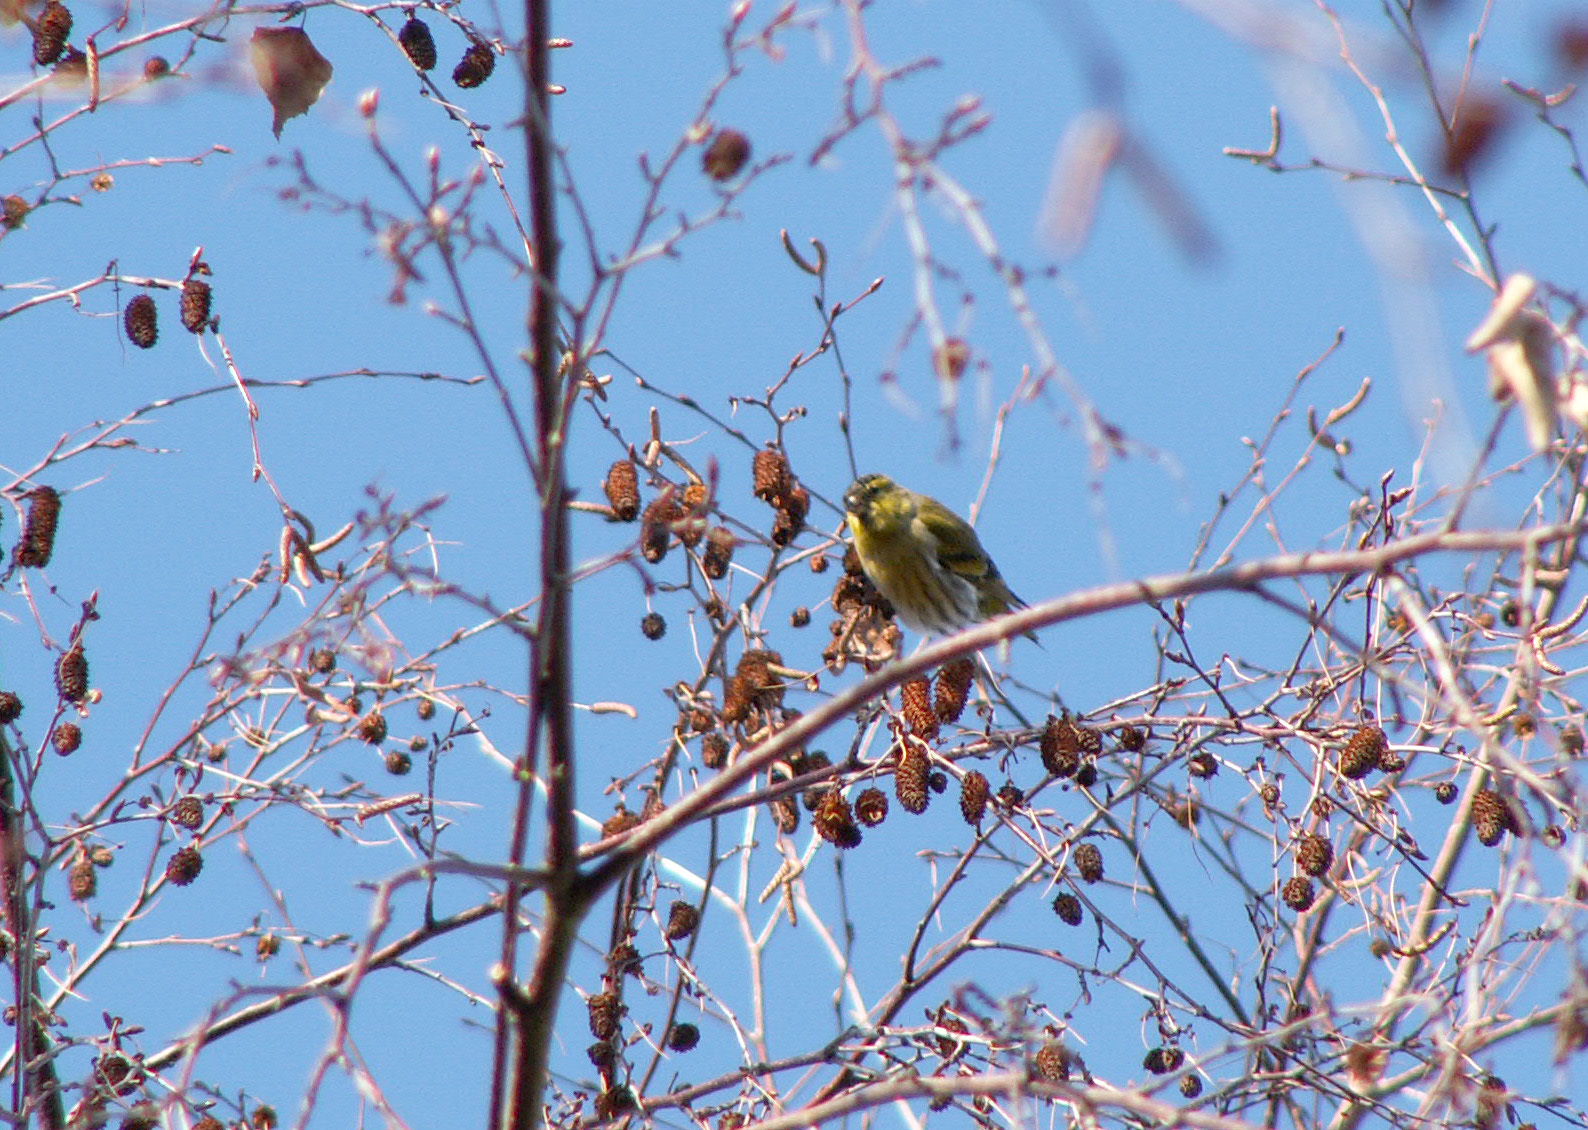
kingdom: Animalia
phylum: Chordata
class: Aves
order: Passeriformes
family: Fringillidae
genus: Spinus
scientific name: Spinus spinus
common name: Eurasian siskin
